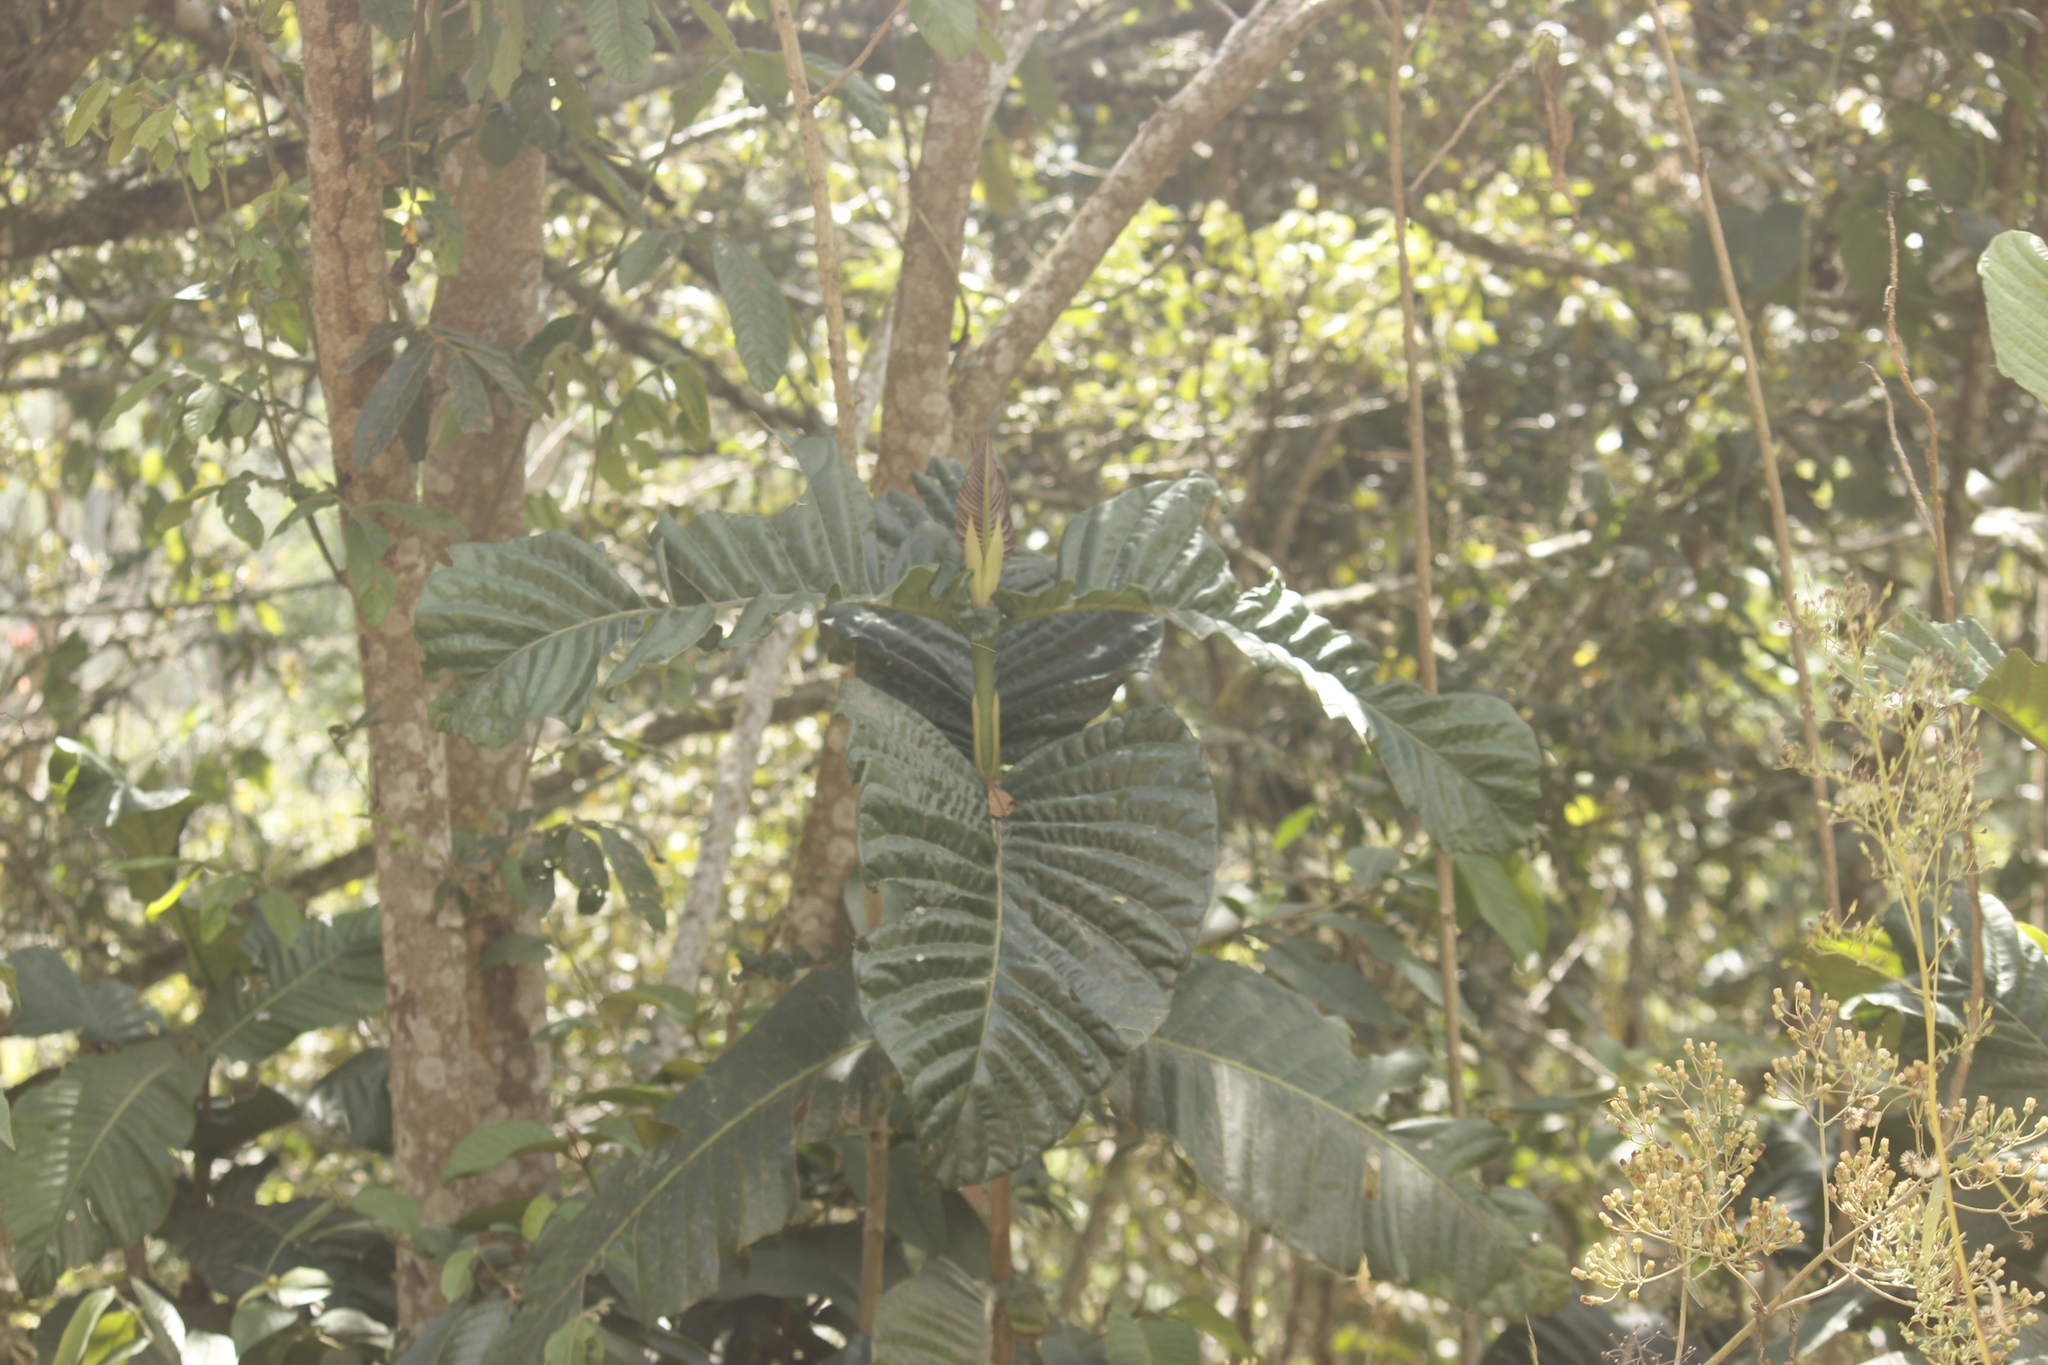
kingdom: Plantae
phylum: Tracheophyta
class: Magnoliopsida
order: Gentianales
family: Rubiaceae
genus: Condaminea
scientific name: Condaminea corymbosa
